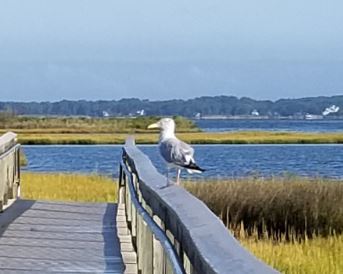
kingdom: Animalia
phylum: Chordata
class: Aves
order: Charadriiformes
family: Laridae
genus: Larus
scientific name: Larus argentatus
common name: Herring gull
